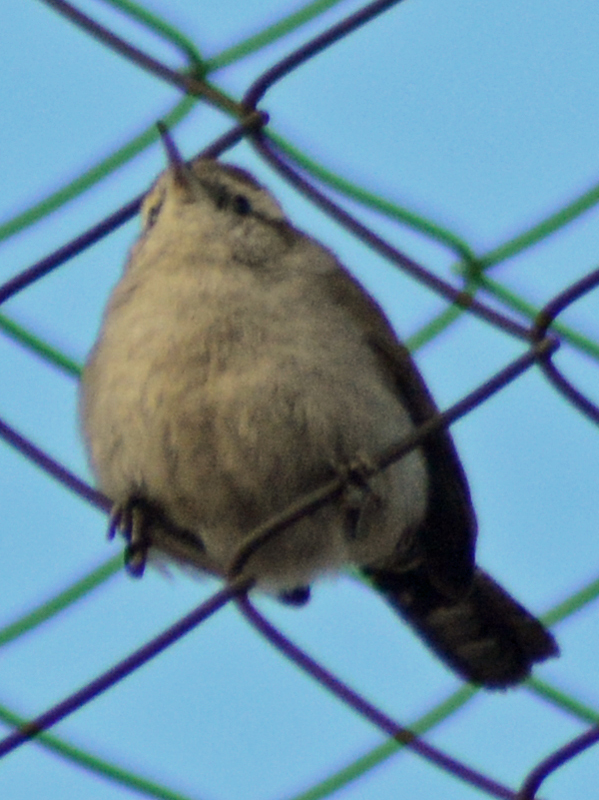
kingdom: Animalia
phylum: Chordata
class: Aves
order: Passeriformes
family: Troglodytidae
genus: Thryomanes
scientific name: Thryomanes bewickii
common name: Bewick's wren
